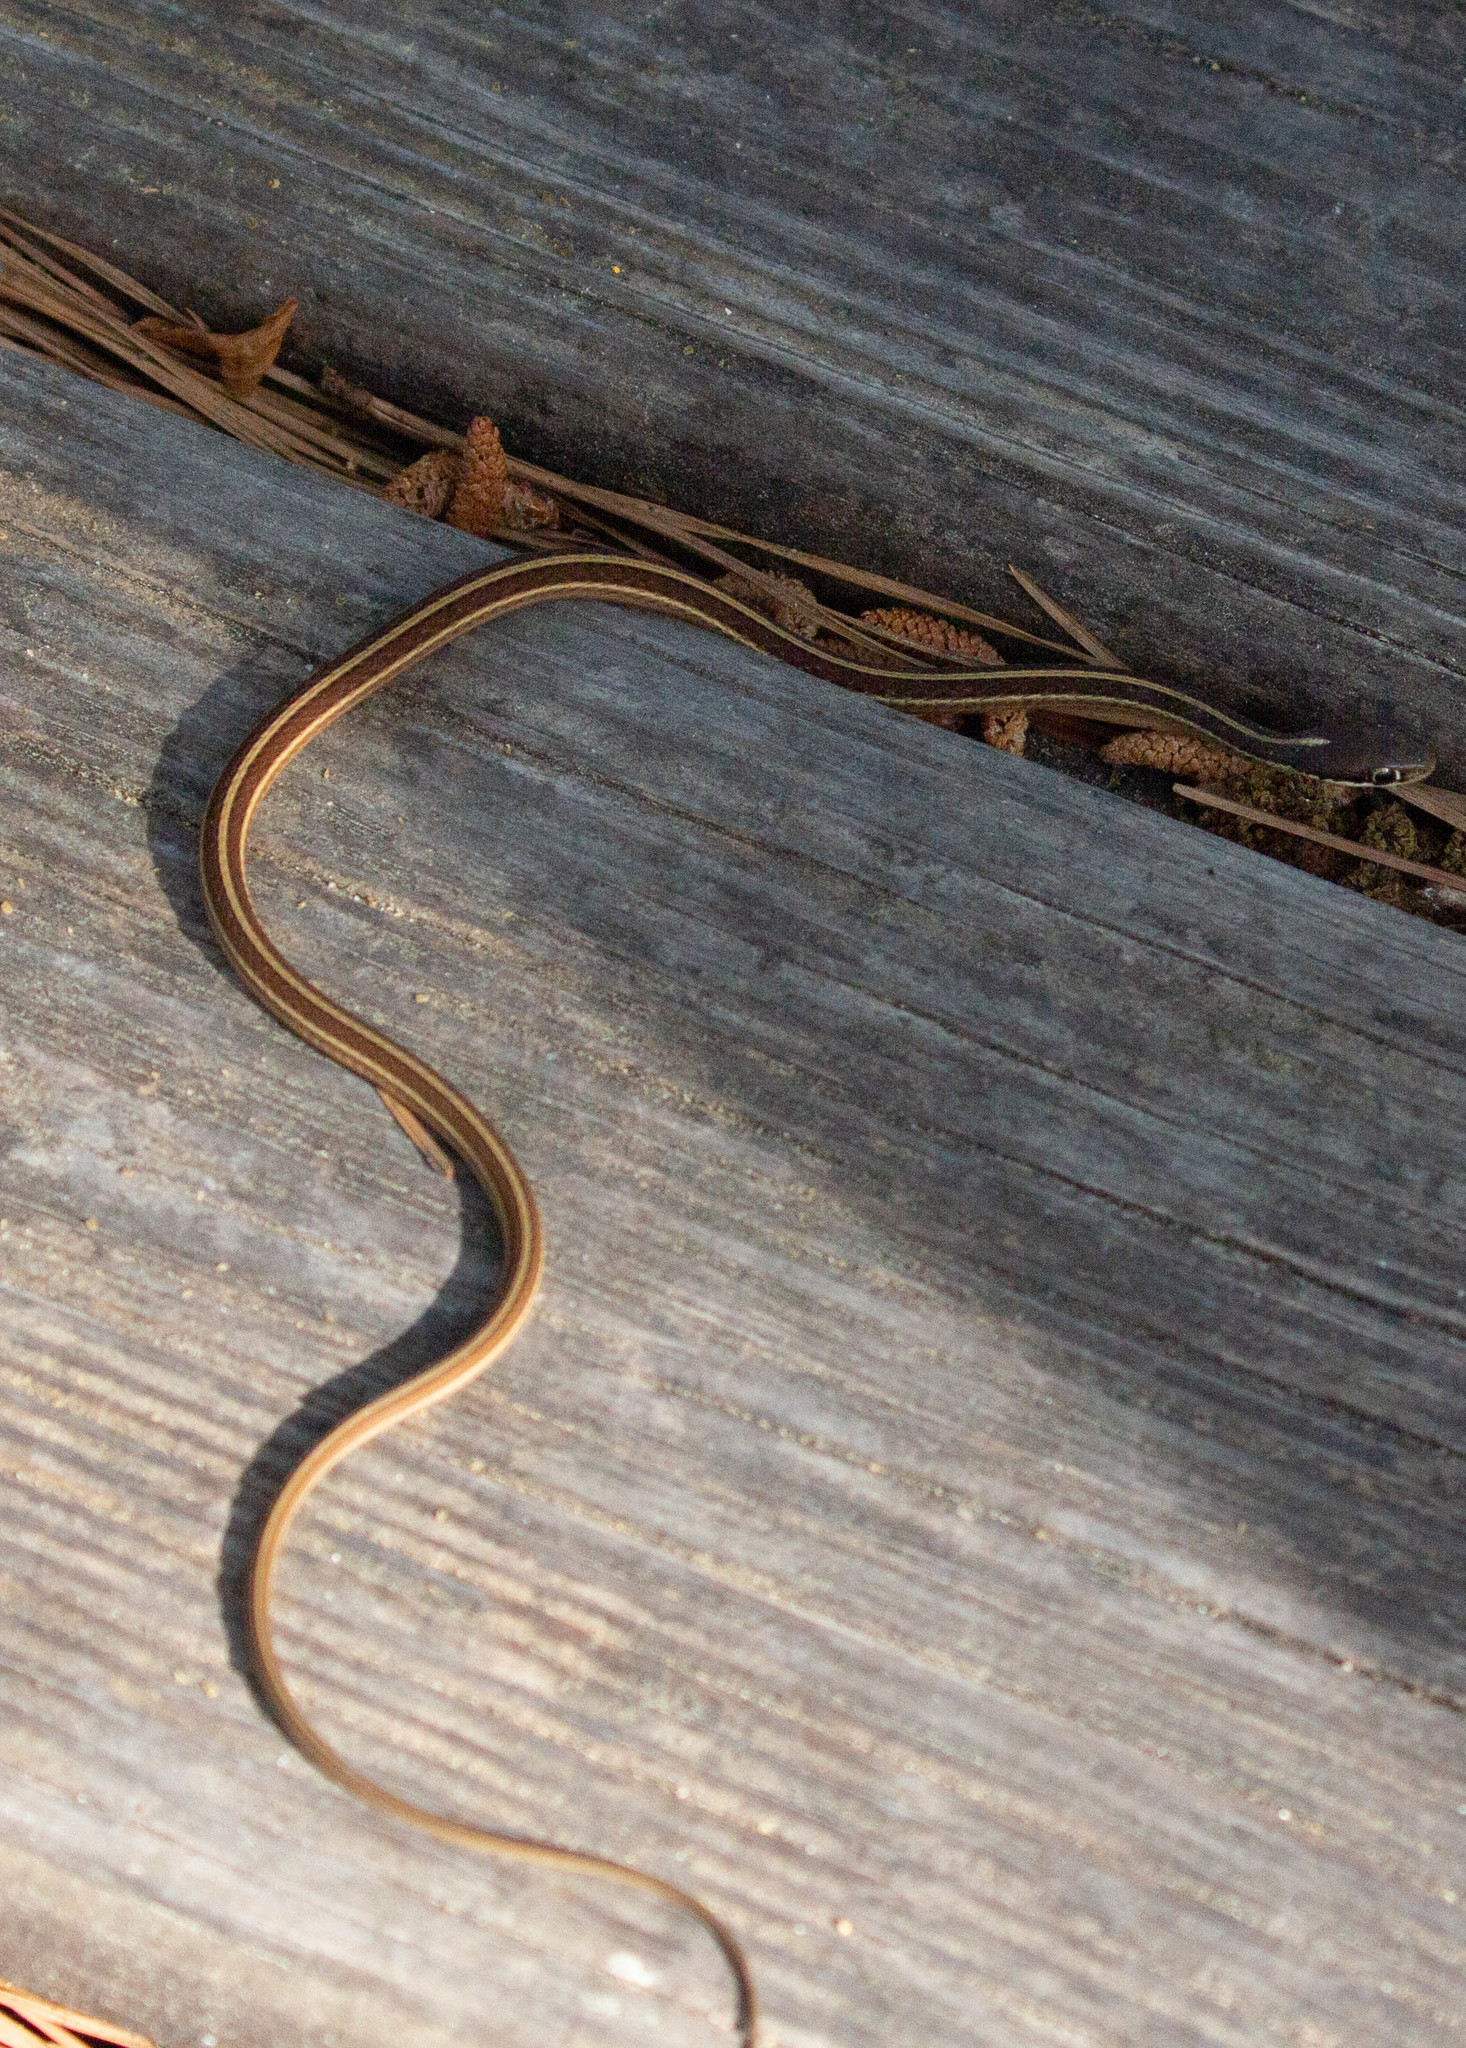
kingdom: Animalia
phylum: Chordata
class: Squamata
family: Colubridae
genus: Thamnophis
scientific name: Thamnophis saurita
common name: Eastern ribbonsnake
